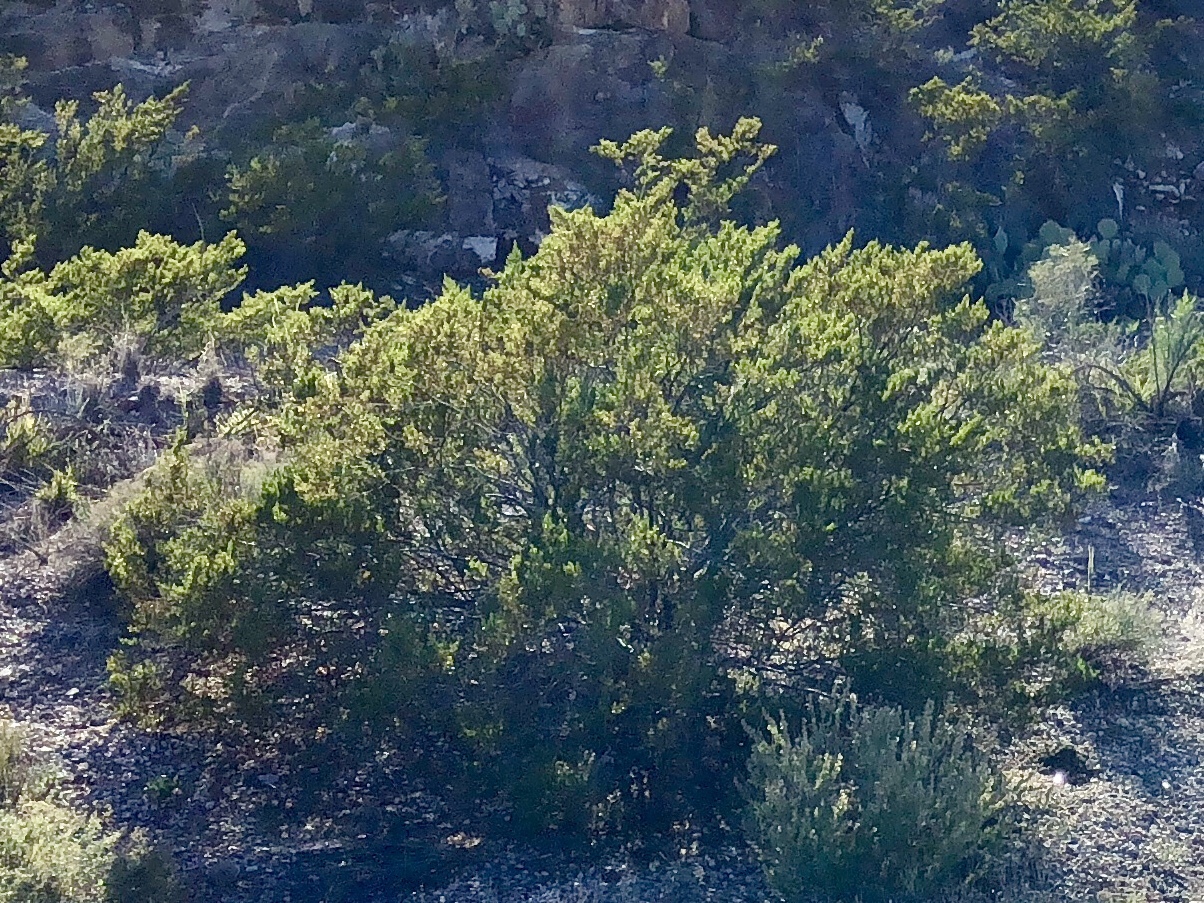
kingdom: Plantae
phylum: Tracheophyta
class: Magnoliopsida
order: Zygophyllales
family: Zygophyllaceae
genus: Larrea
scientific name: Larrea tridentata
